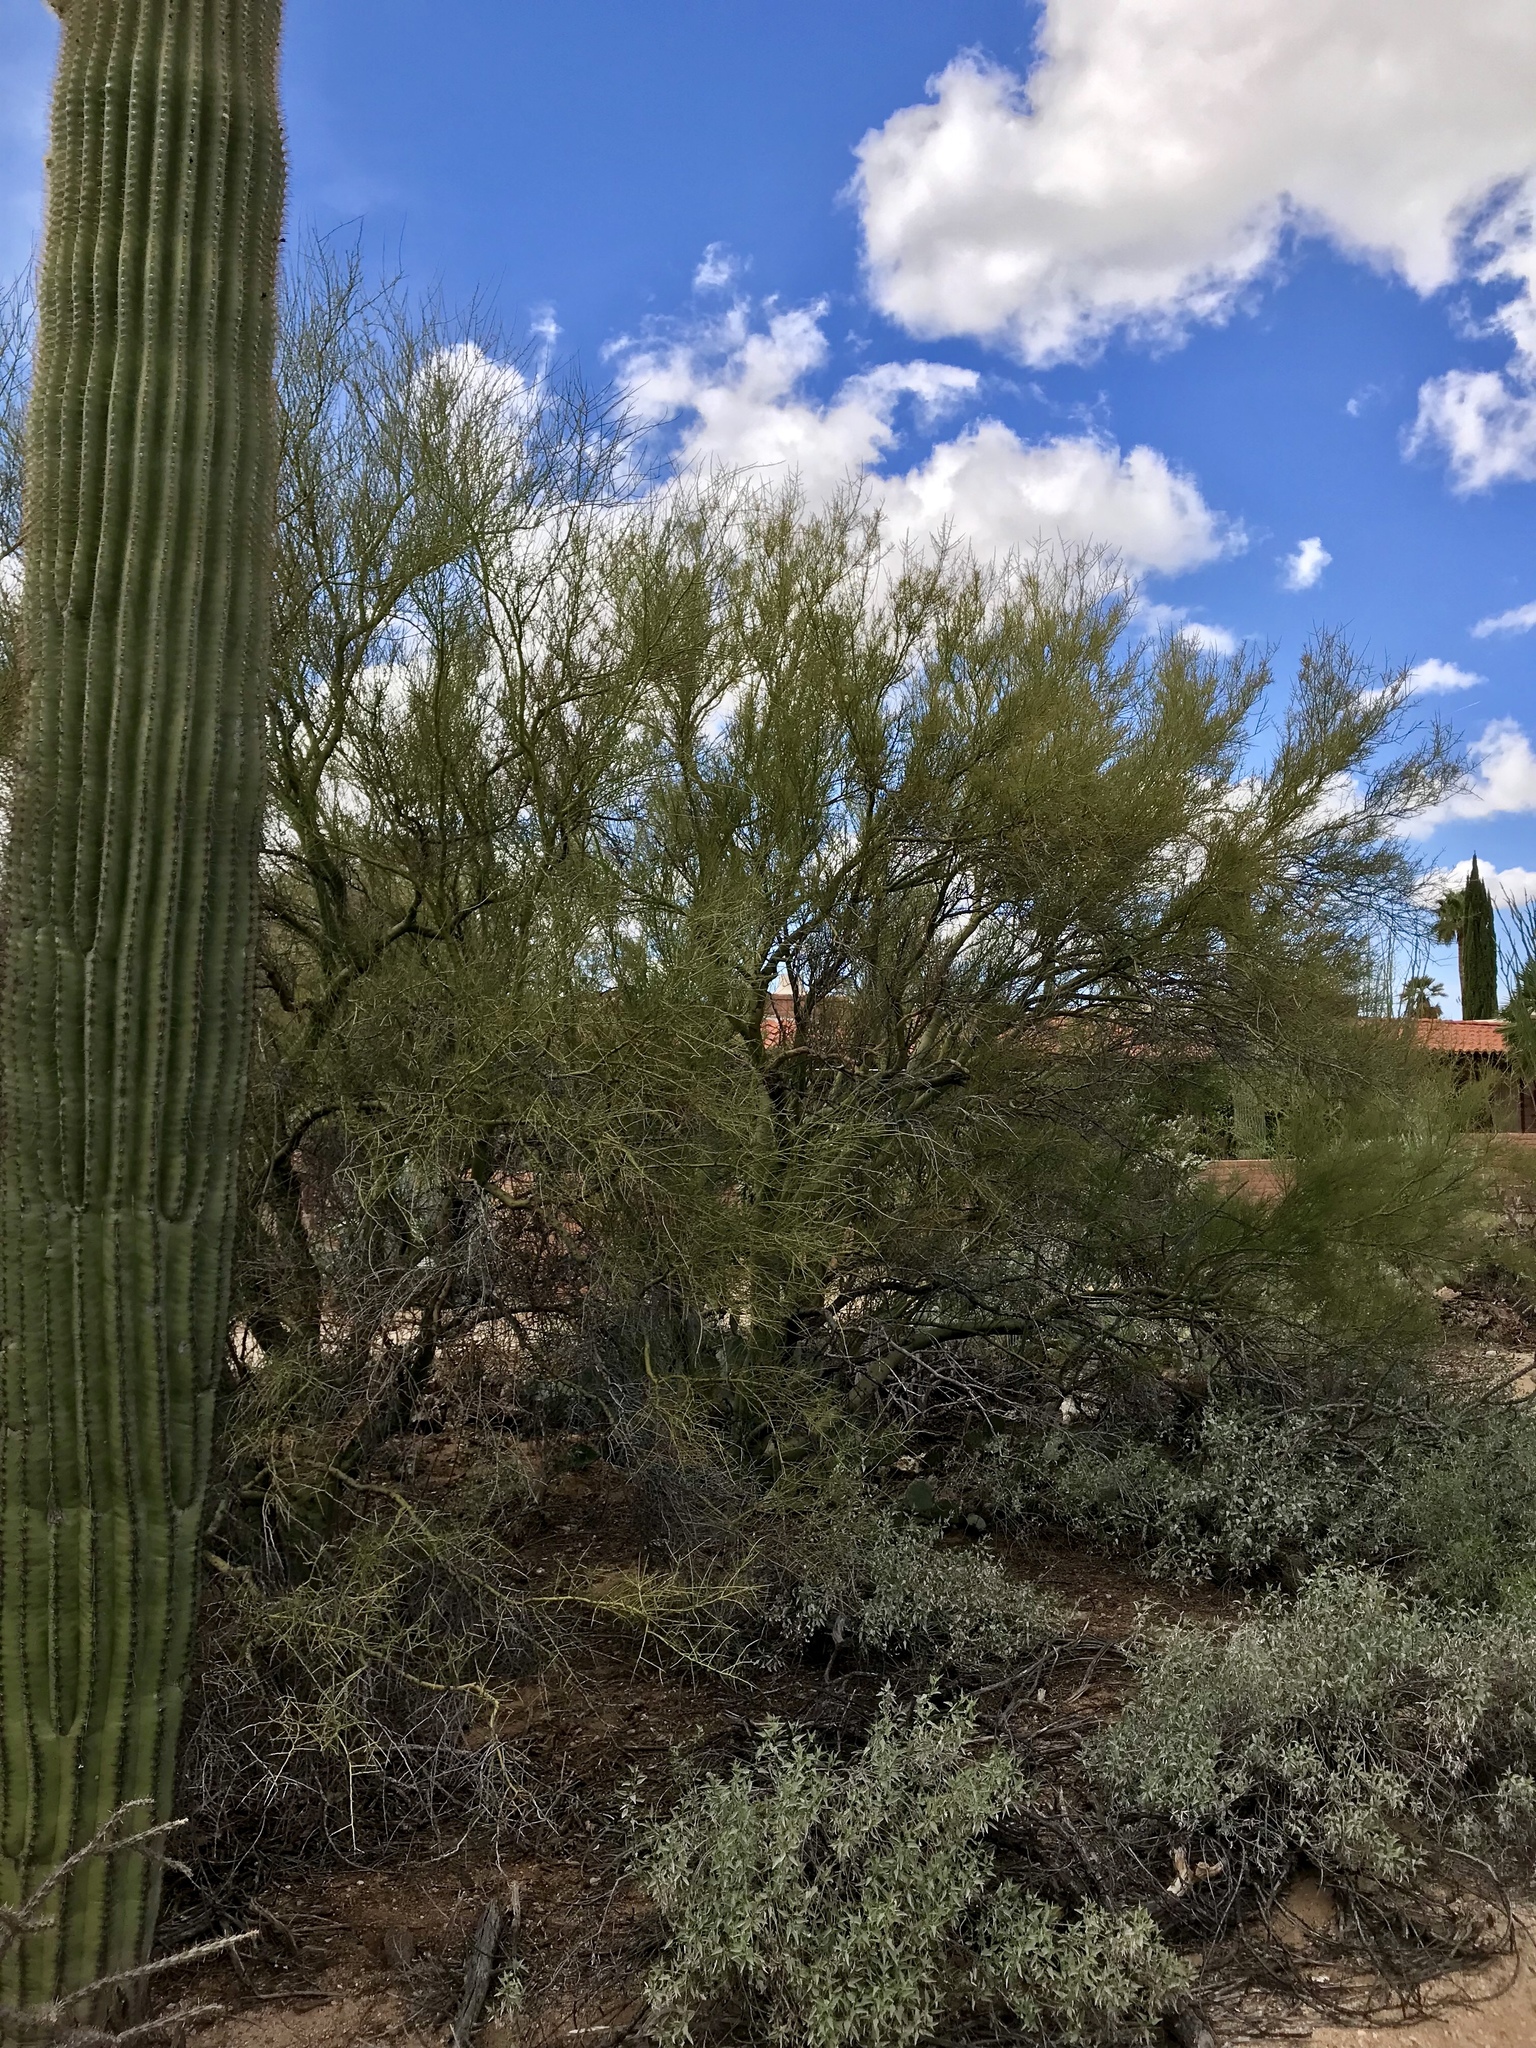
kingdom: Plantae
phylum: Tracheophyta
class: Magnoliopsida
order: Fabales
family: Fabaceae
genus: Parkinsonia
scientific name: Parkinsonia microphylla
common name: Yellow paloverde
